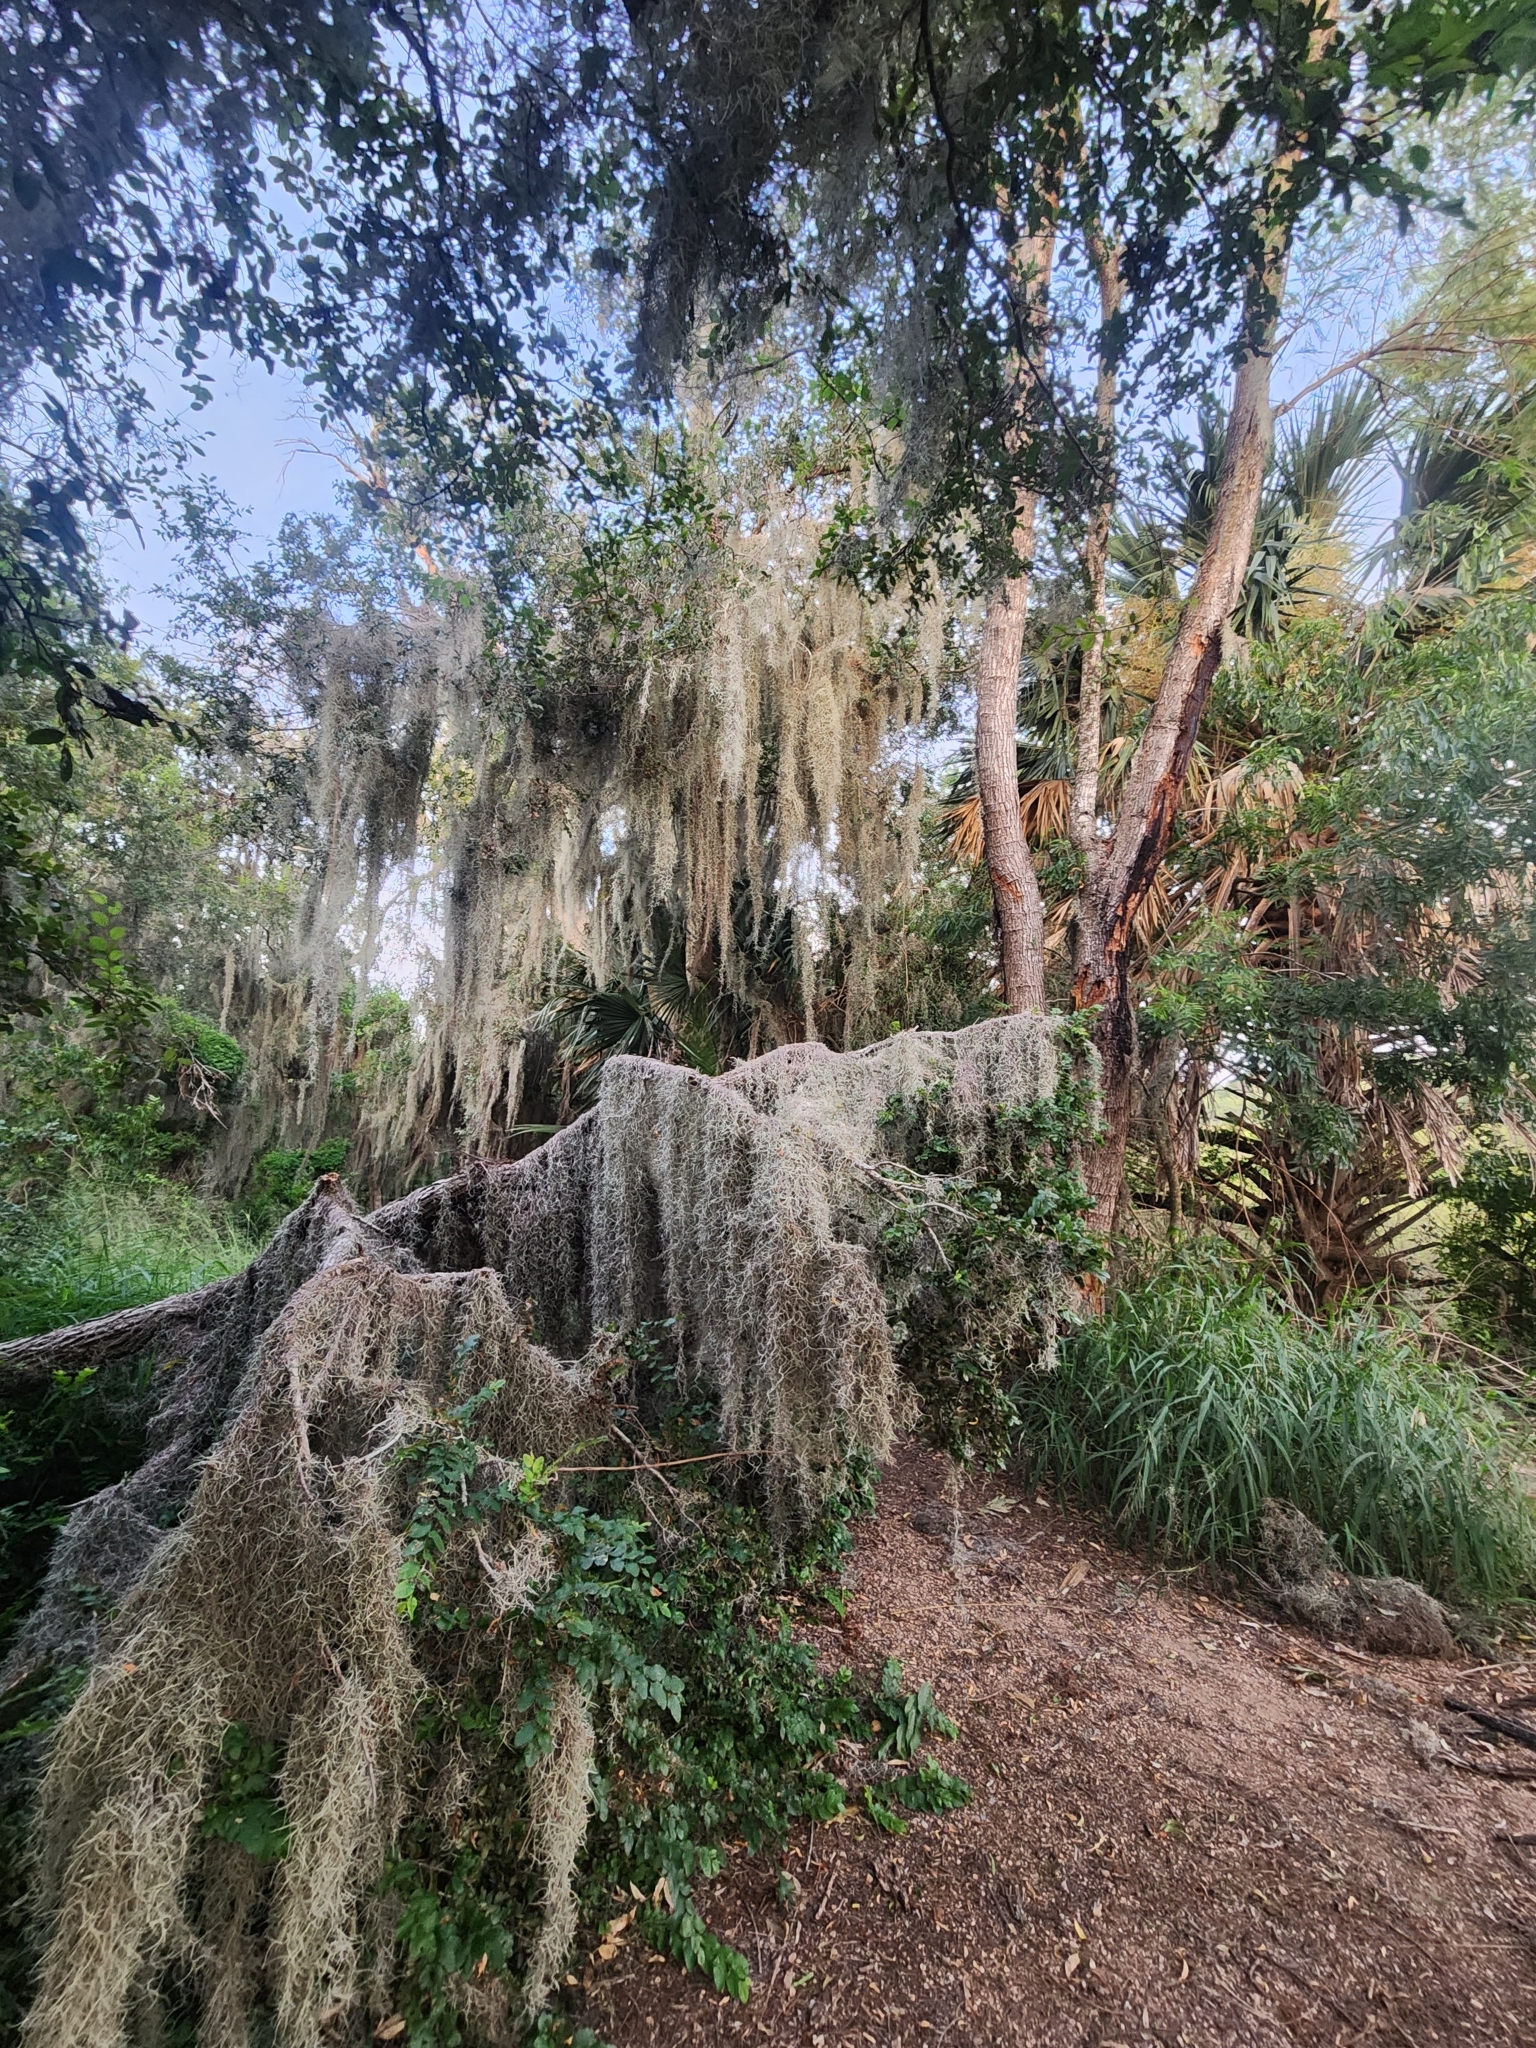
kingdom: Plantae
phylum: Tracheophyta
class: Liliopsida
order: Poales
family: Bromeliaceae
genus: Tillandsia
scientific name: Tillandsia usneoides
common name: Spanish moss
